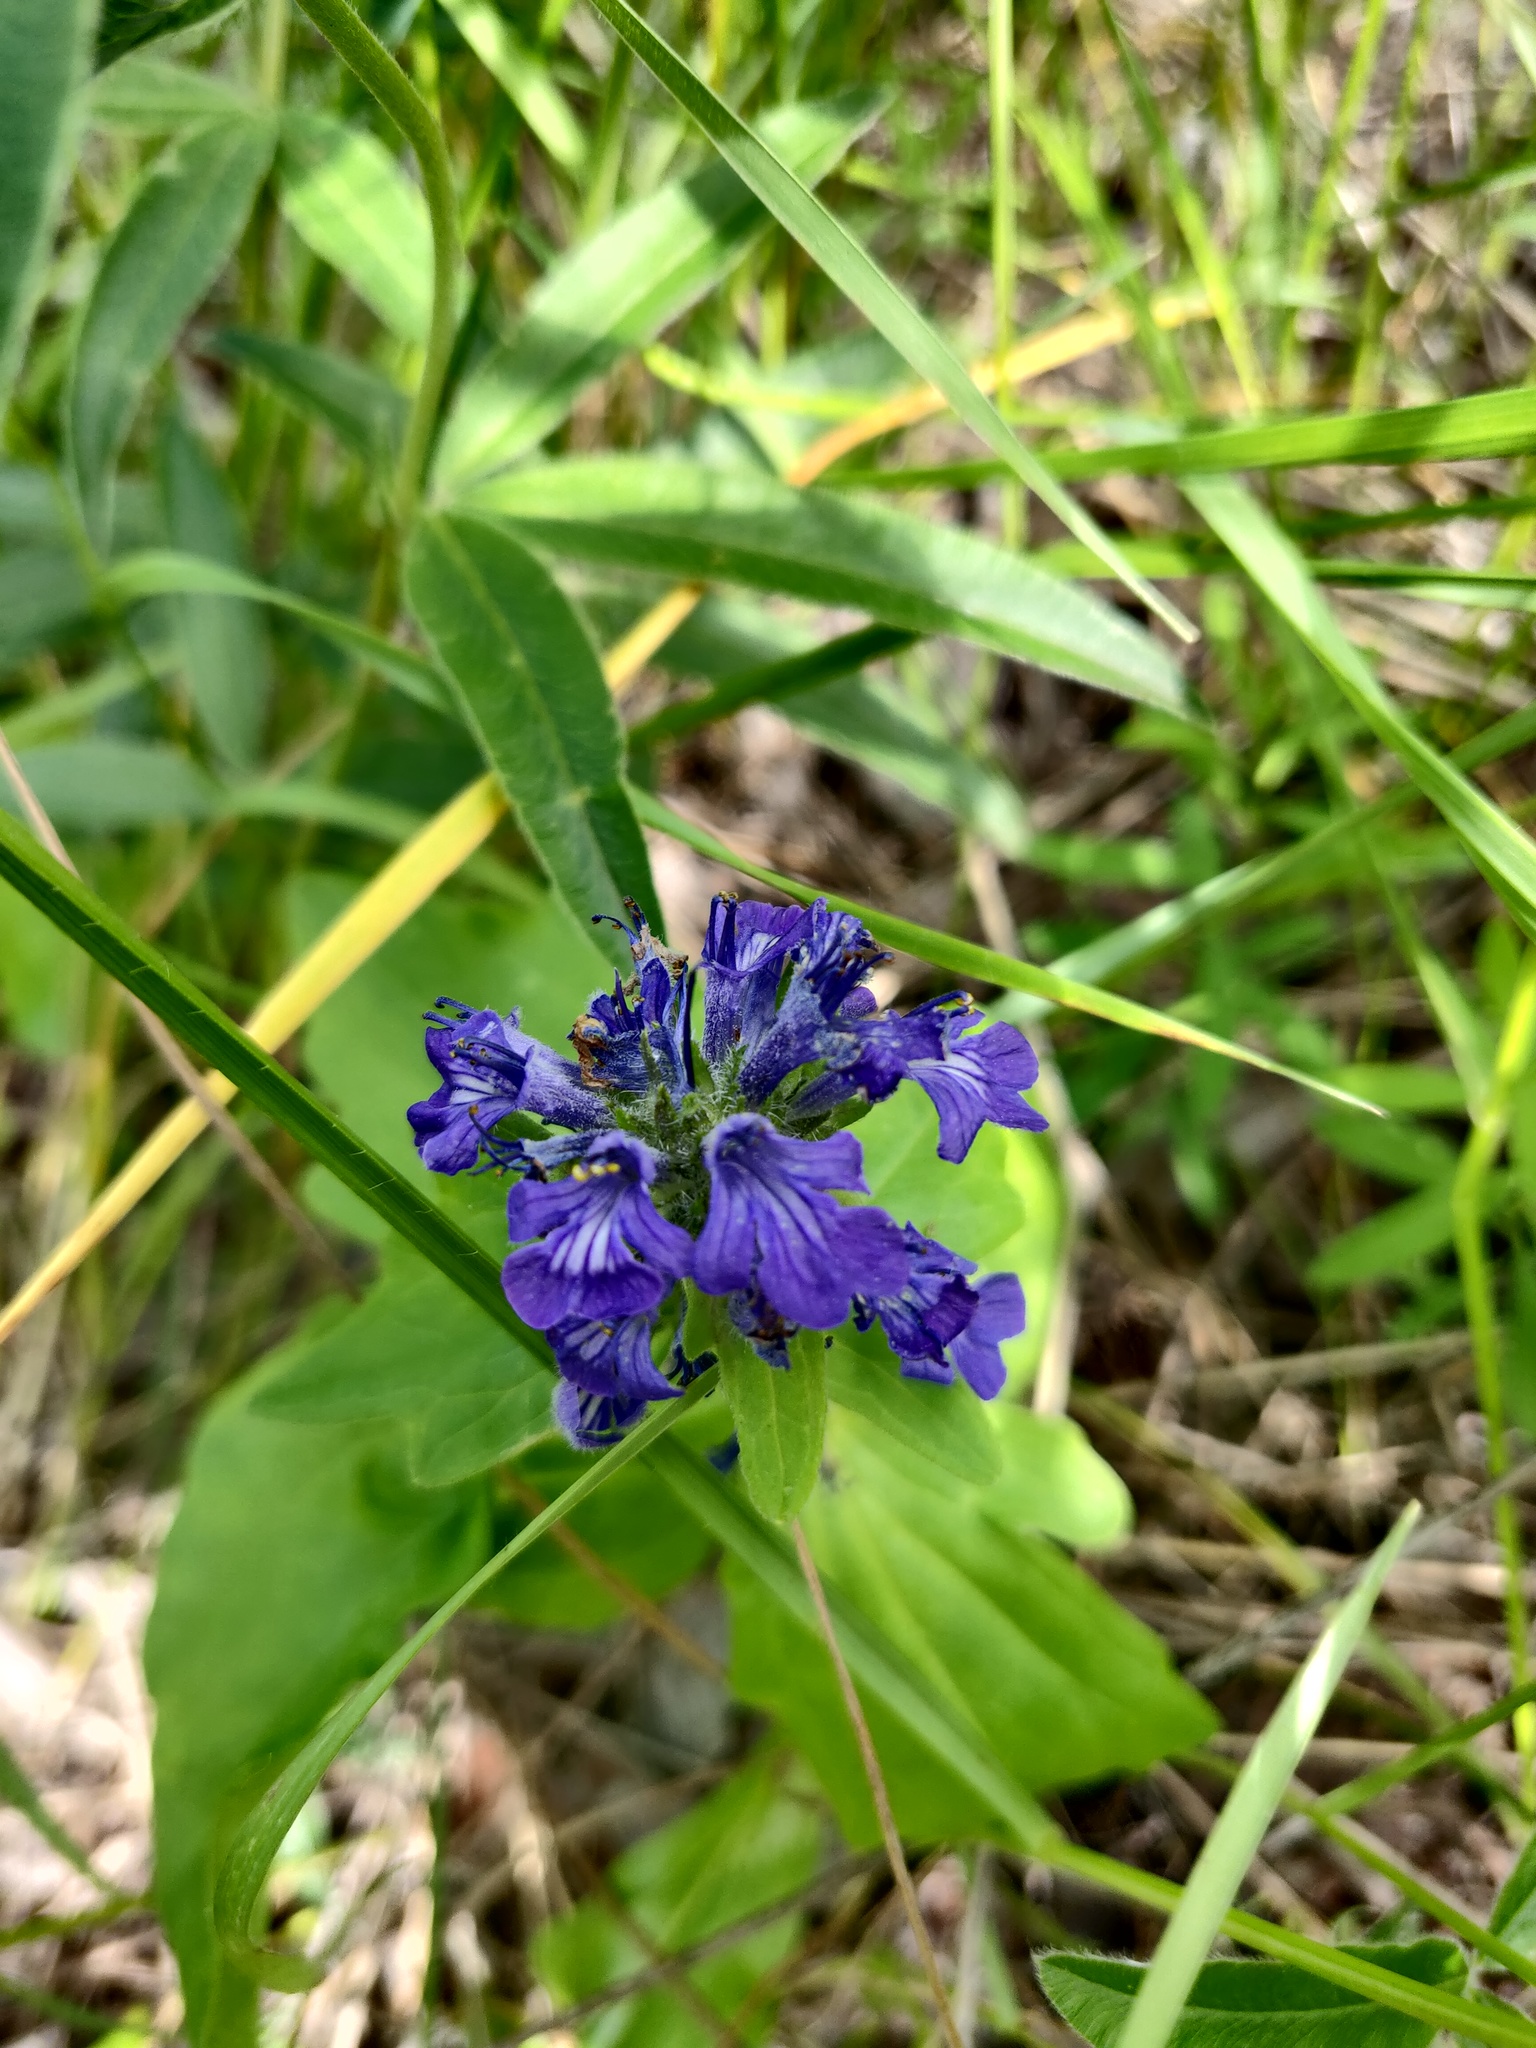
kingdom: Plantae
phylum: Tracheophyta
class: Magnoliopsida
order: Lamiales
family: Lamiaceae
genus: Ajuga
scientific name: Ajuga genevensis
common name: Blue bugle
